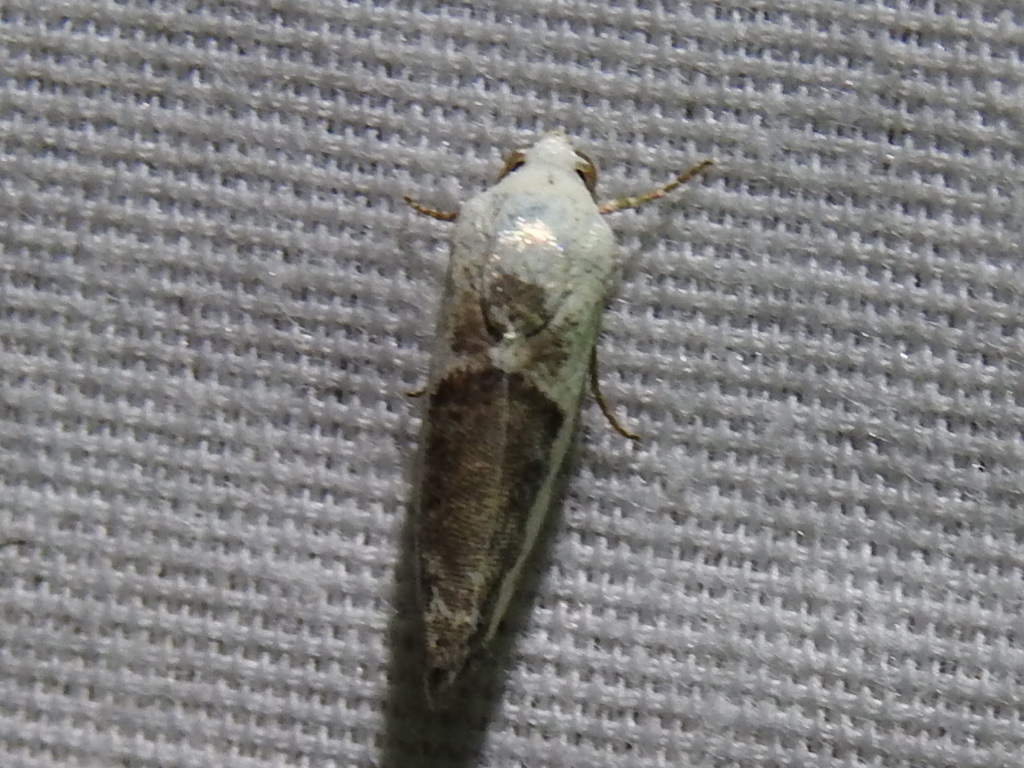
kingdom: Animalia
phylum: Arthropoda
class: Insecta
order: Lepidoptera
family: Noctuidae
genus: Acontia
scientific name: Acontia quadriplaga
